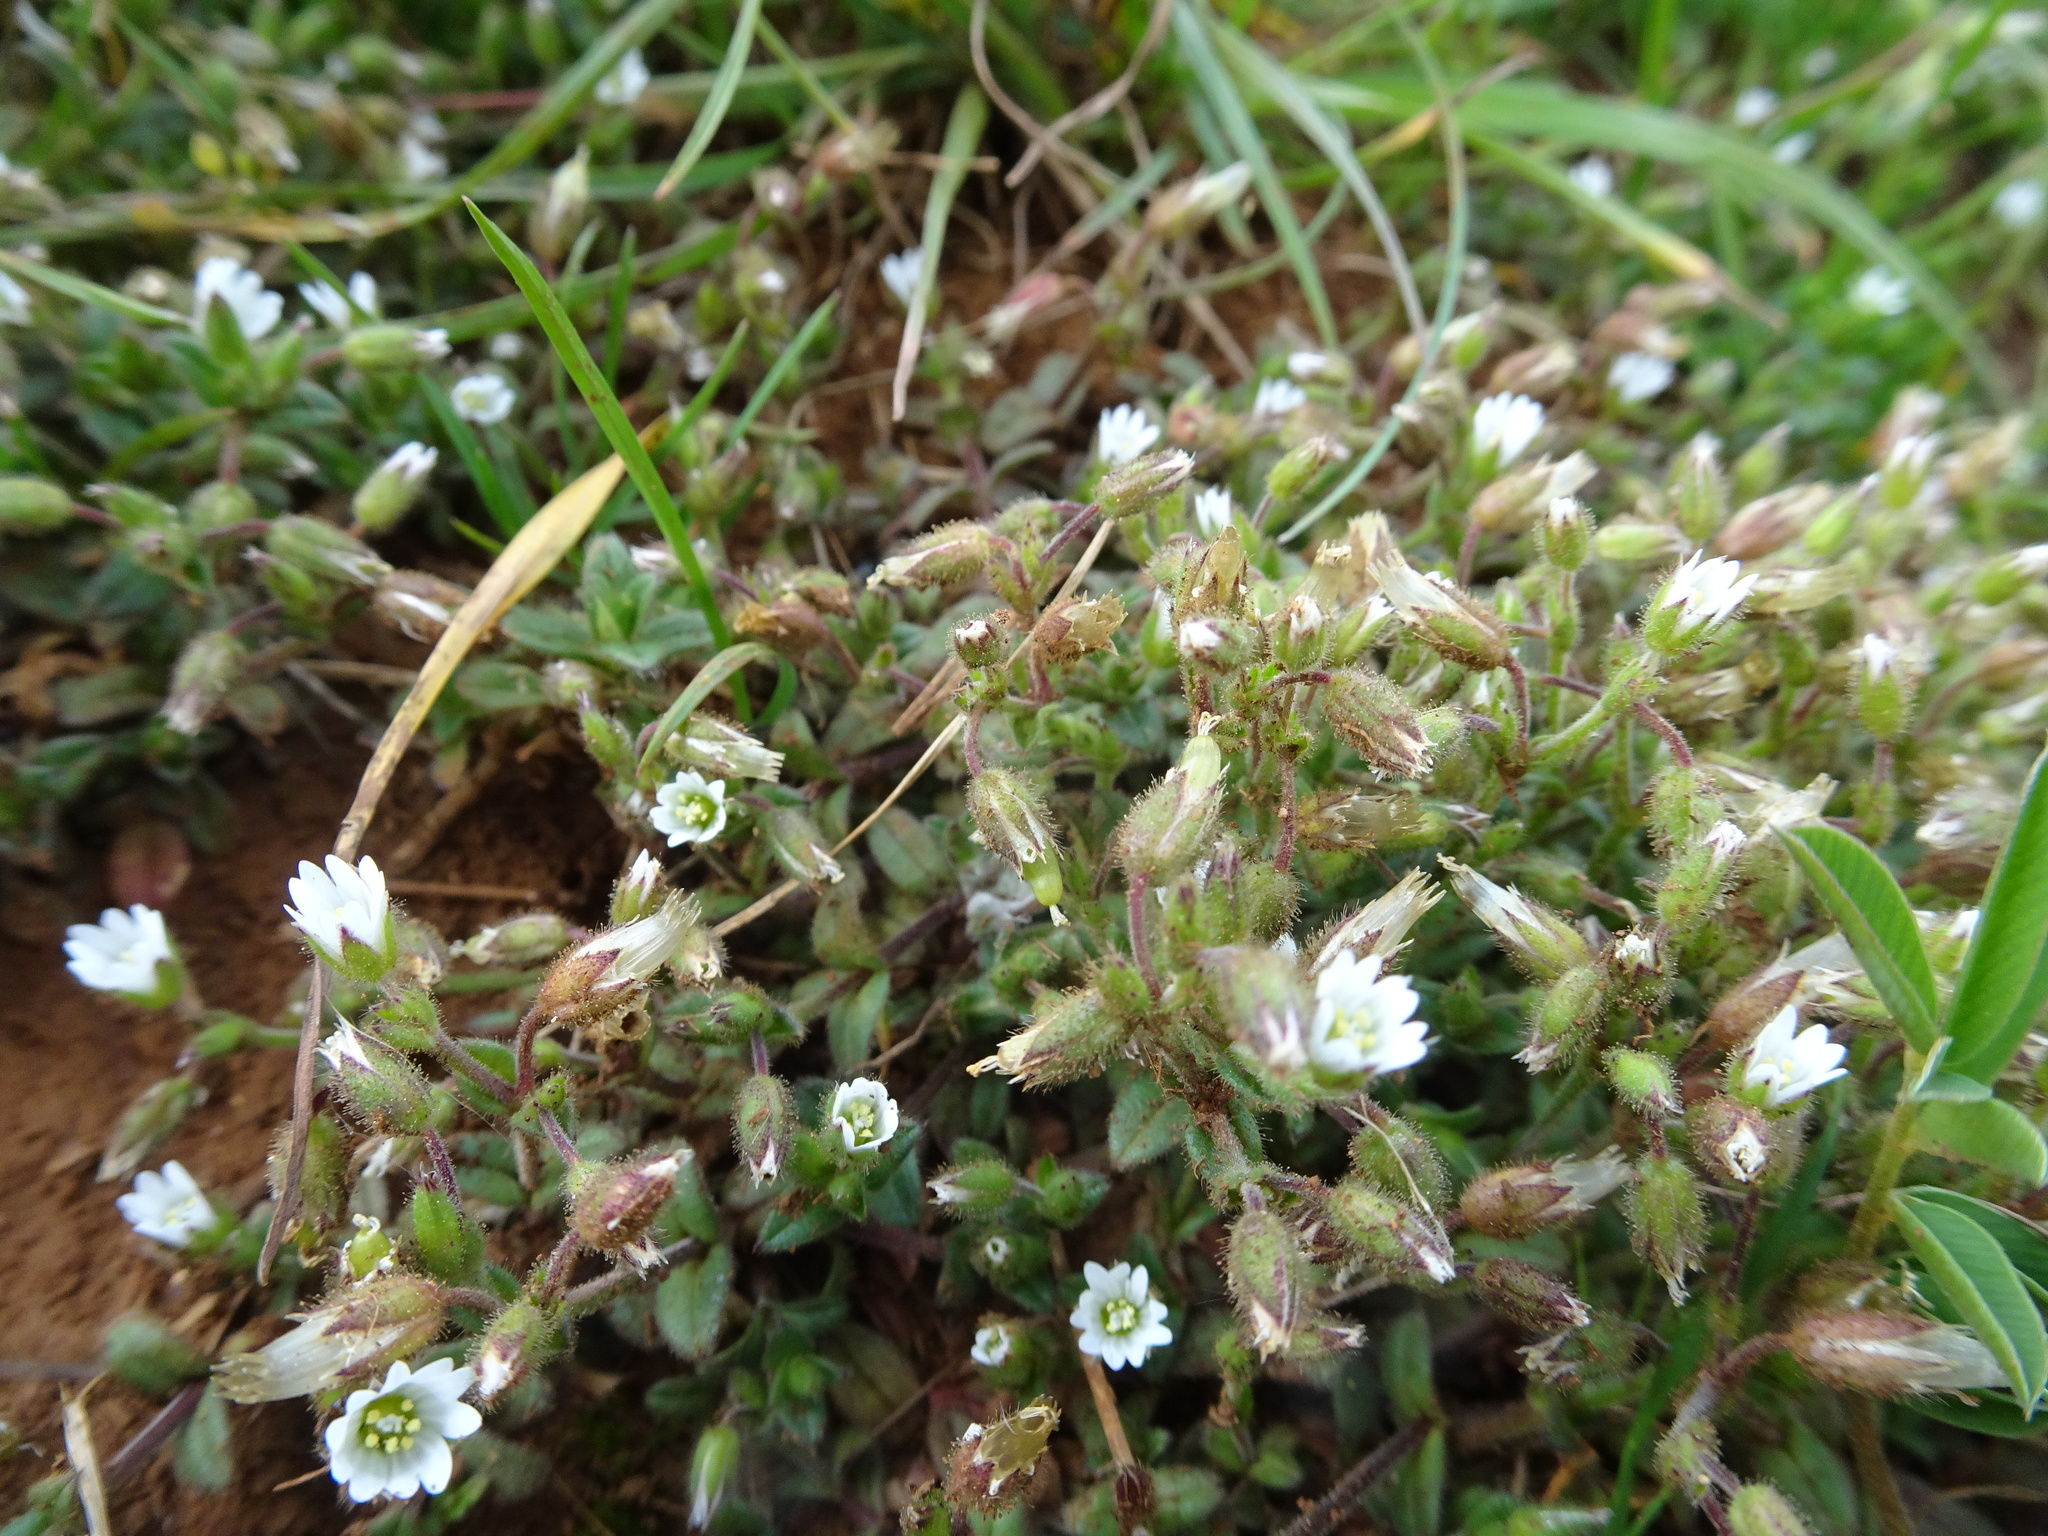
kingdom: Plantae
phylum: Tracheophyta
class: Magnoliopsida
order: Caryophyllales
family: Caryophyllaceae
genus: Cerastium
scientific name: Cerastium pumilum
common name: Dwarf mouse-ear
